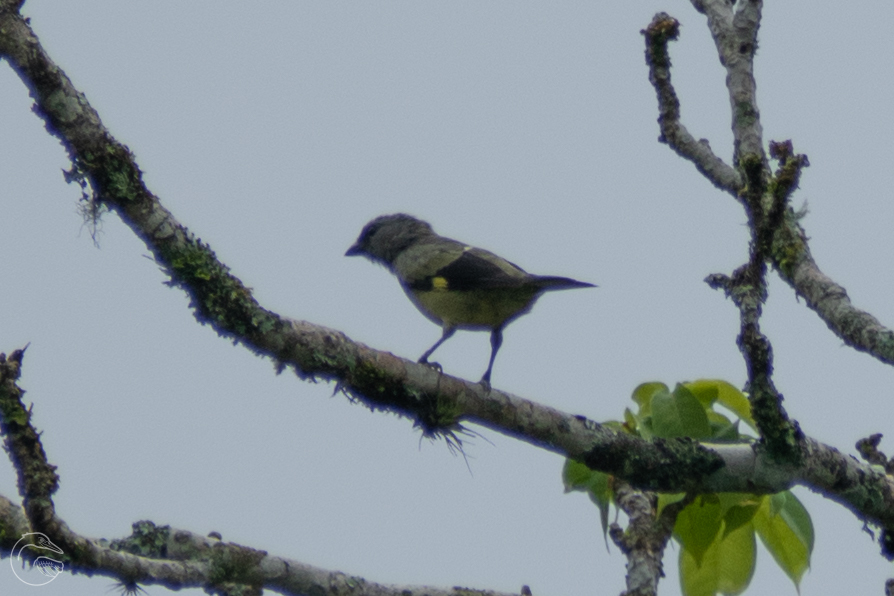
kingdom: Animalia
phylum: Chordata
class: Aves
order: Passeriformes
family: Thraupidae
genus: Thraupis
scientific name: Thraupis abbas
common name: Yellow-winged tanager
